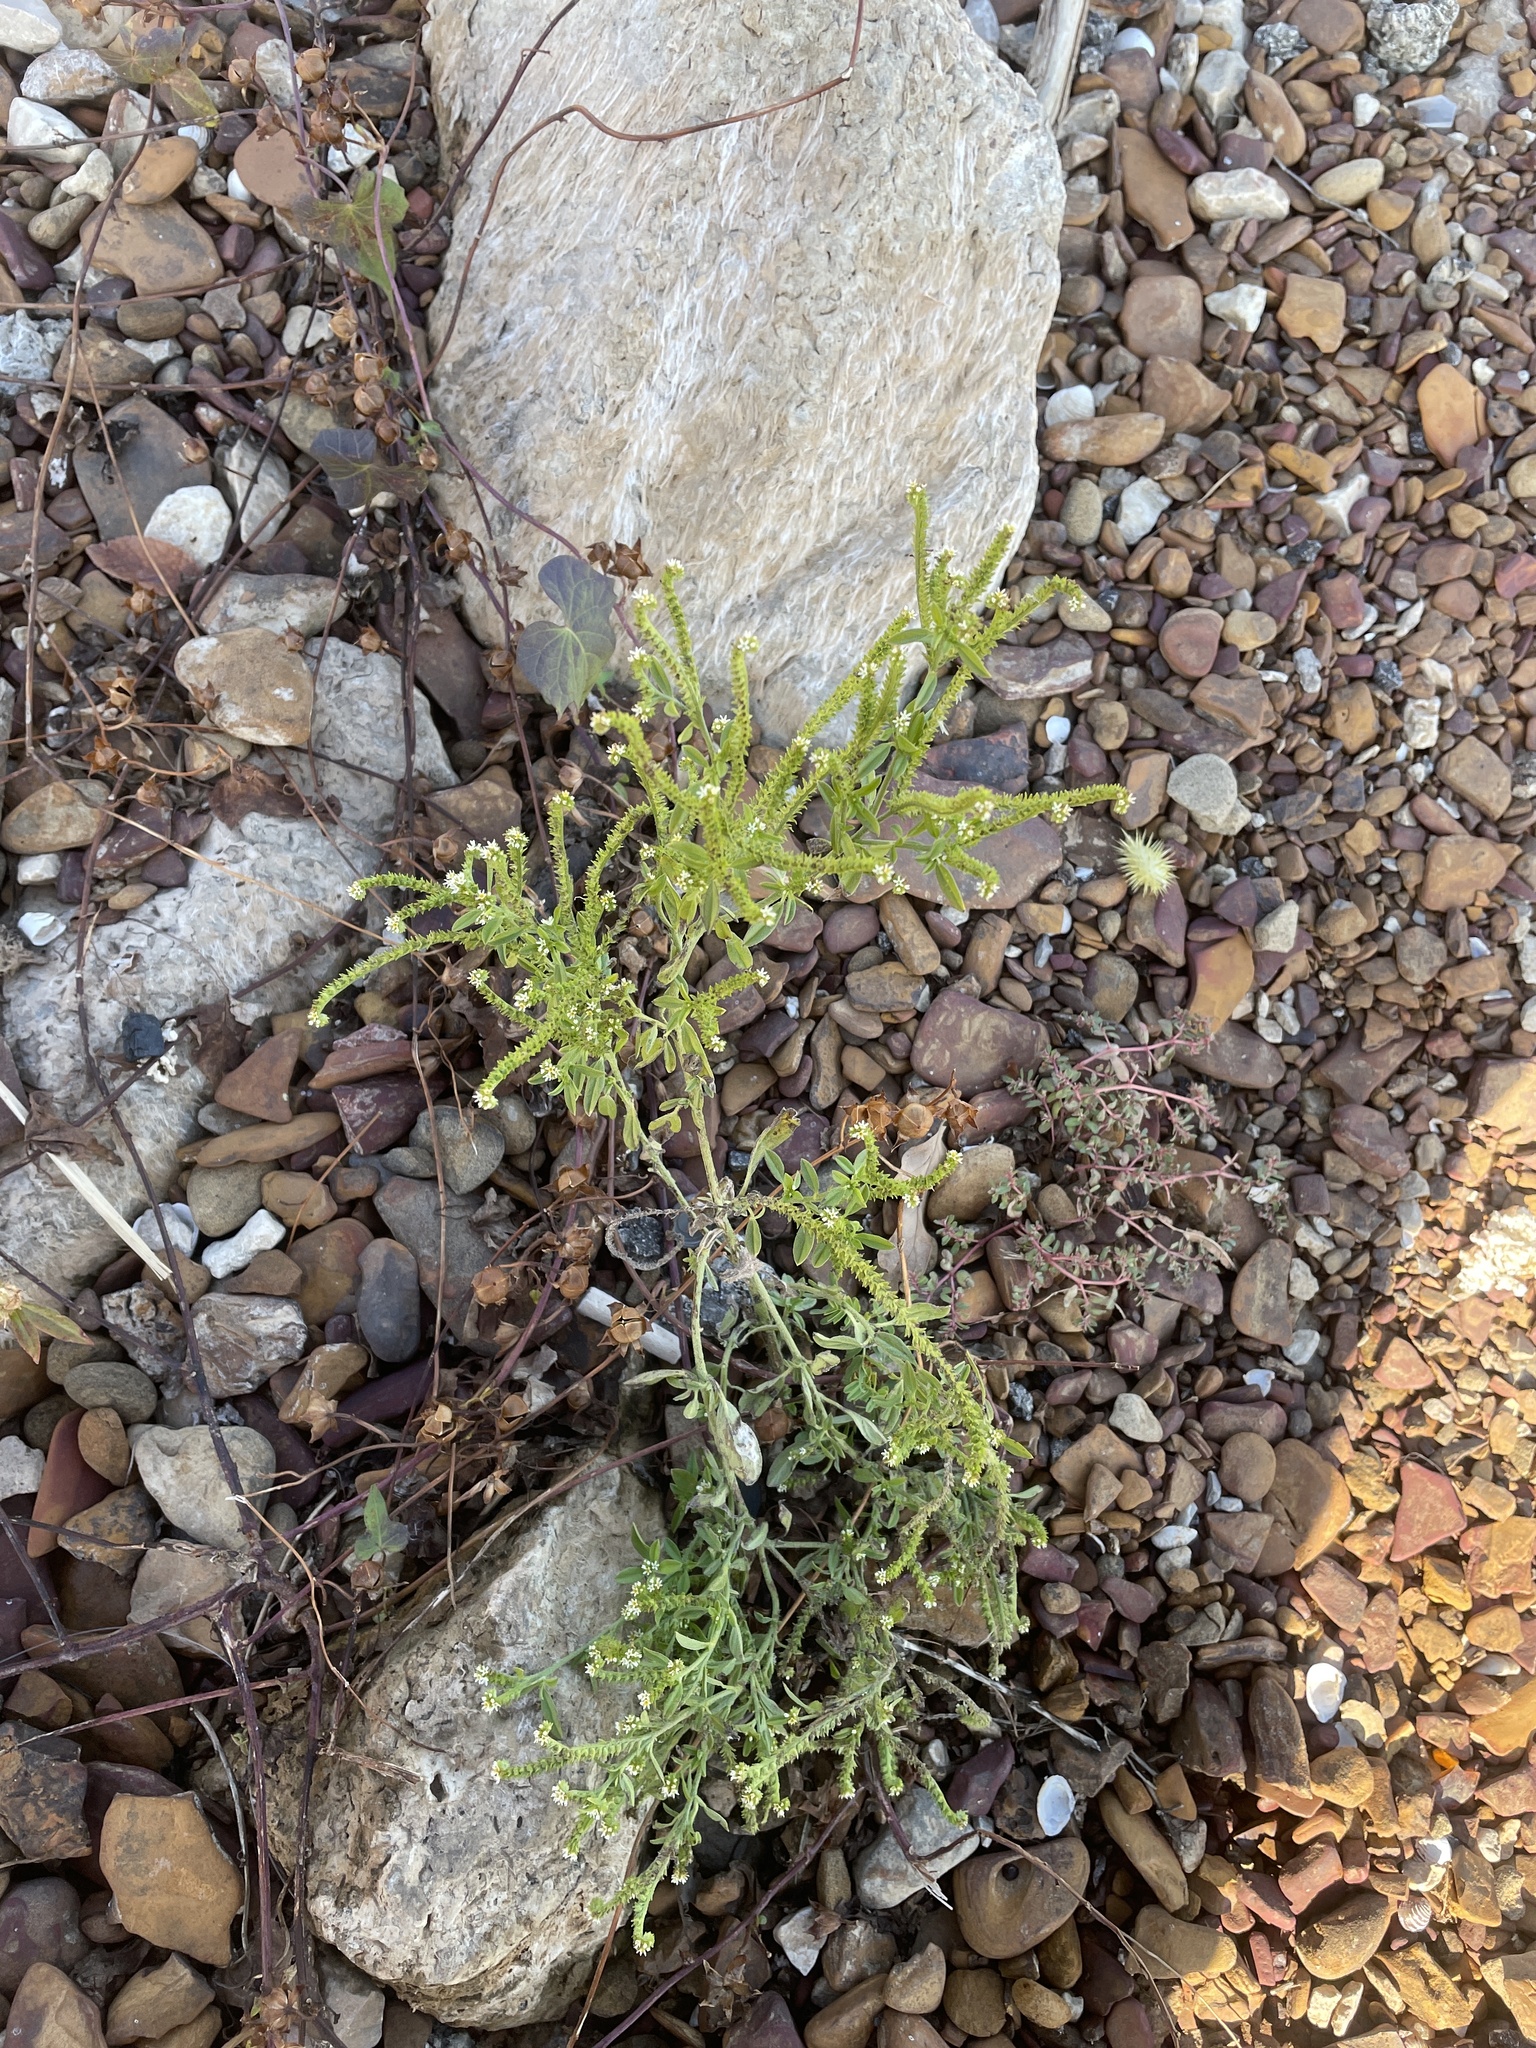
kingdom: Plantae
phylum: Tracheophyta
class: Magnoliopsida
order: Boraginales
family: Heliotropiaceae
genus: Euploca
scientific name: Euploca procumbens
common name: Fourspike heliotrope
